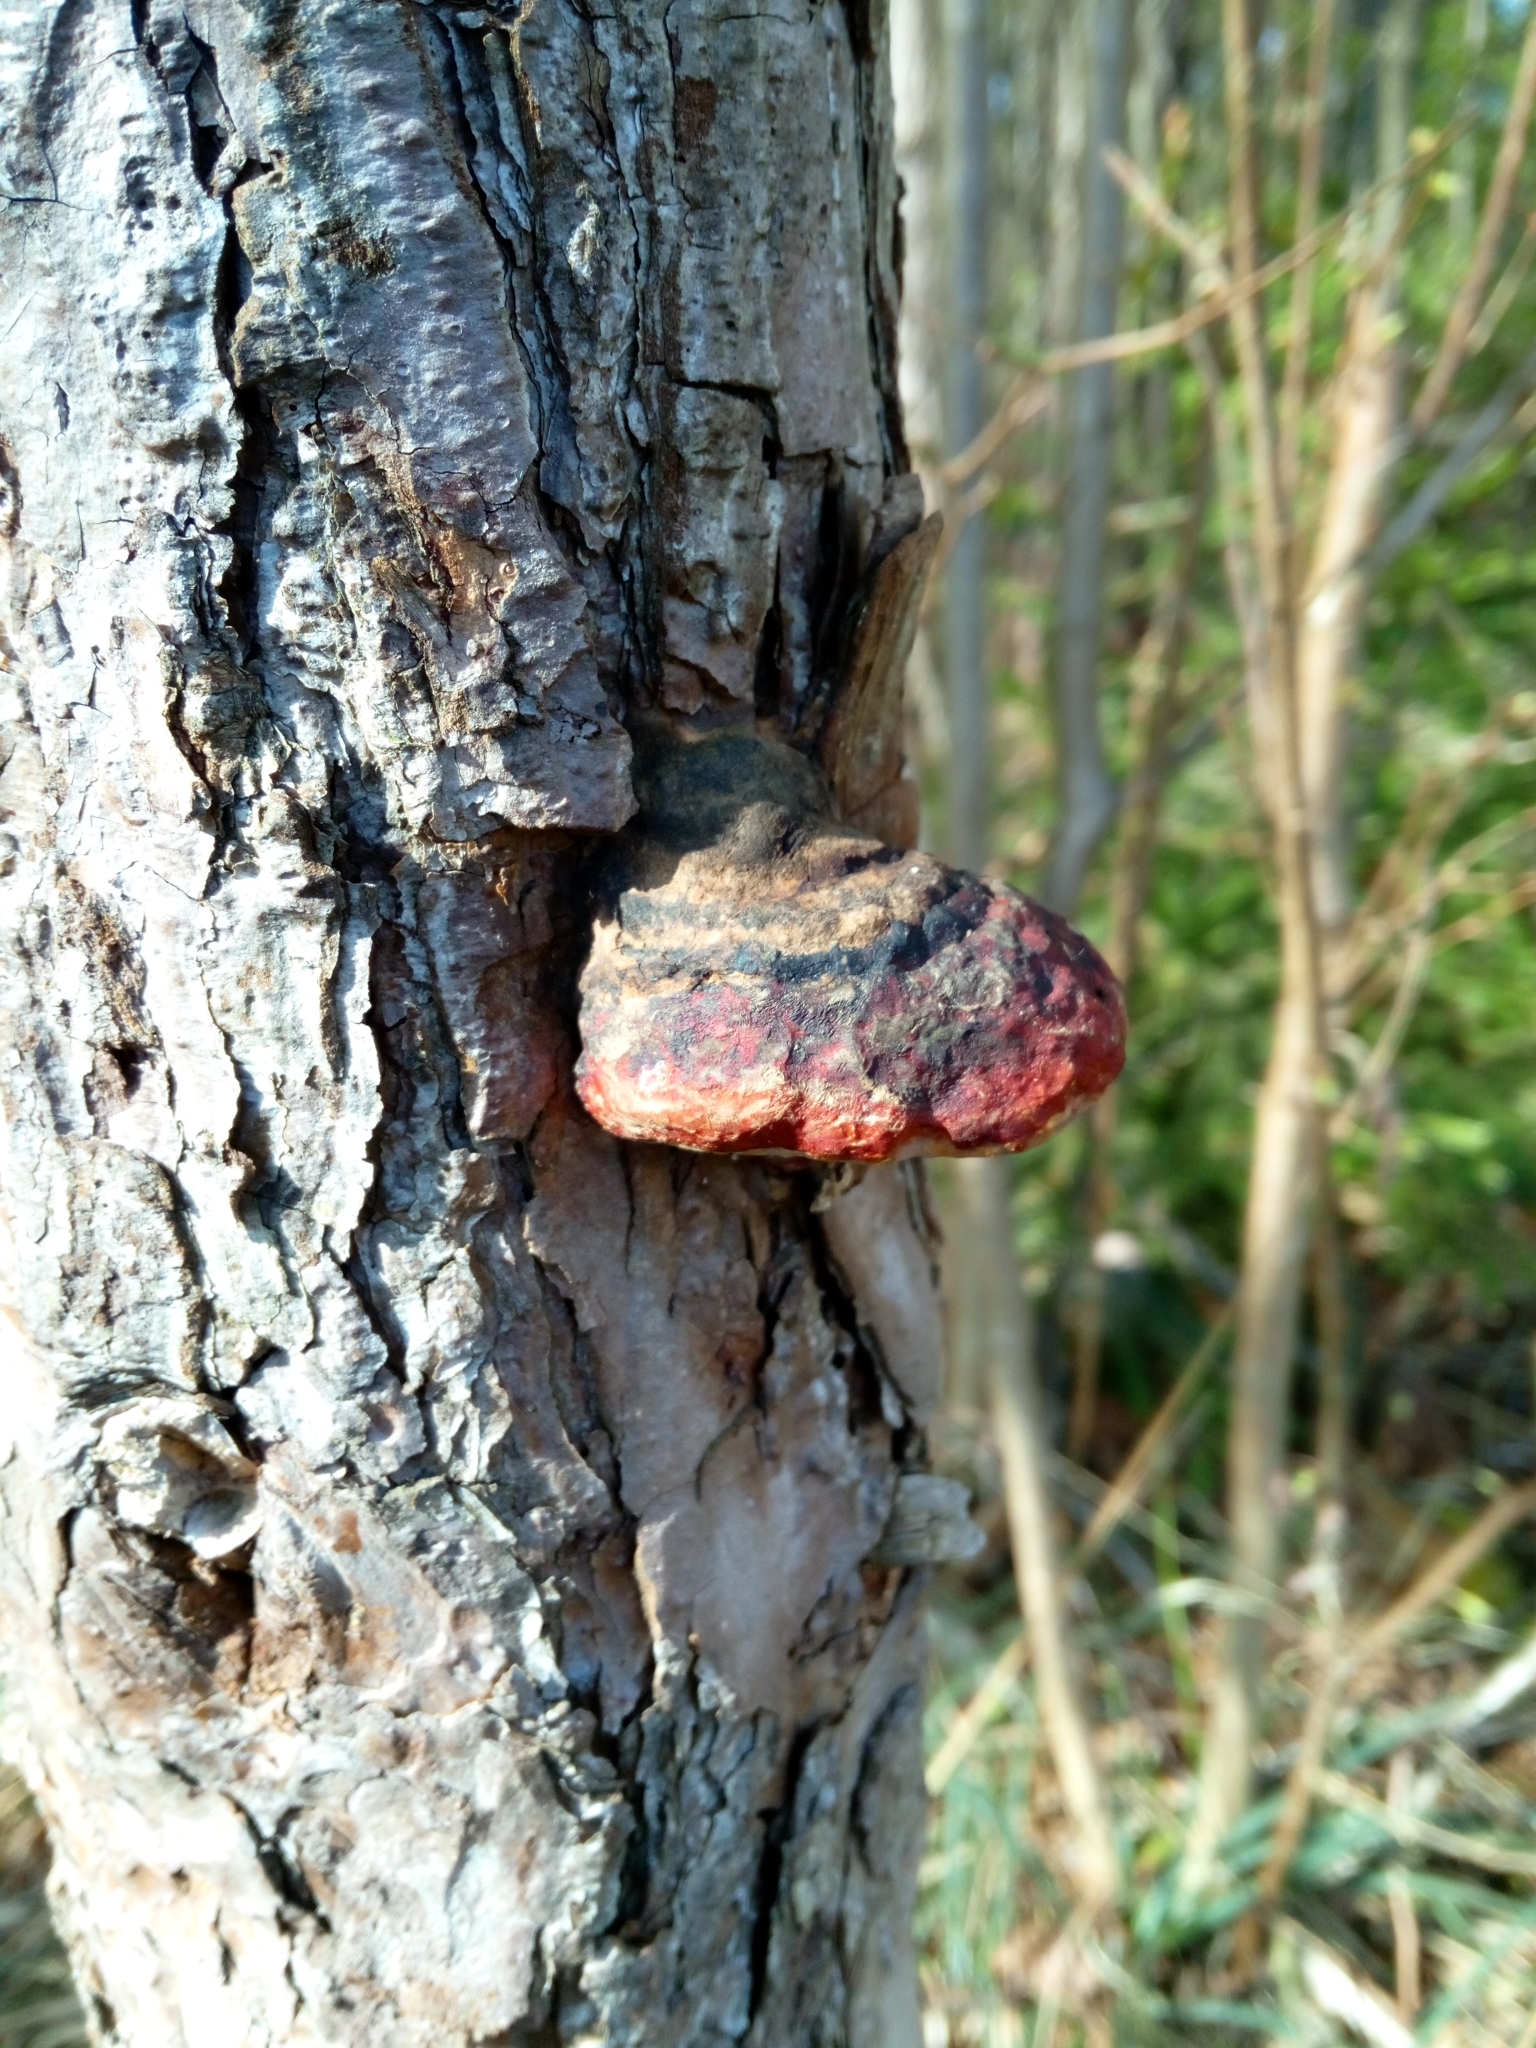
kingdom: Fungi
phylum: Basidiomycota
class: Agaricomycetes
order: Polyporales
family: Fomitopsidaceae
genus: Fomitopsis
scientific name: Fomitopsis pinicola
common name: Red-belted bracket
